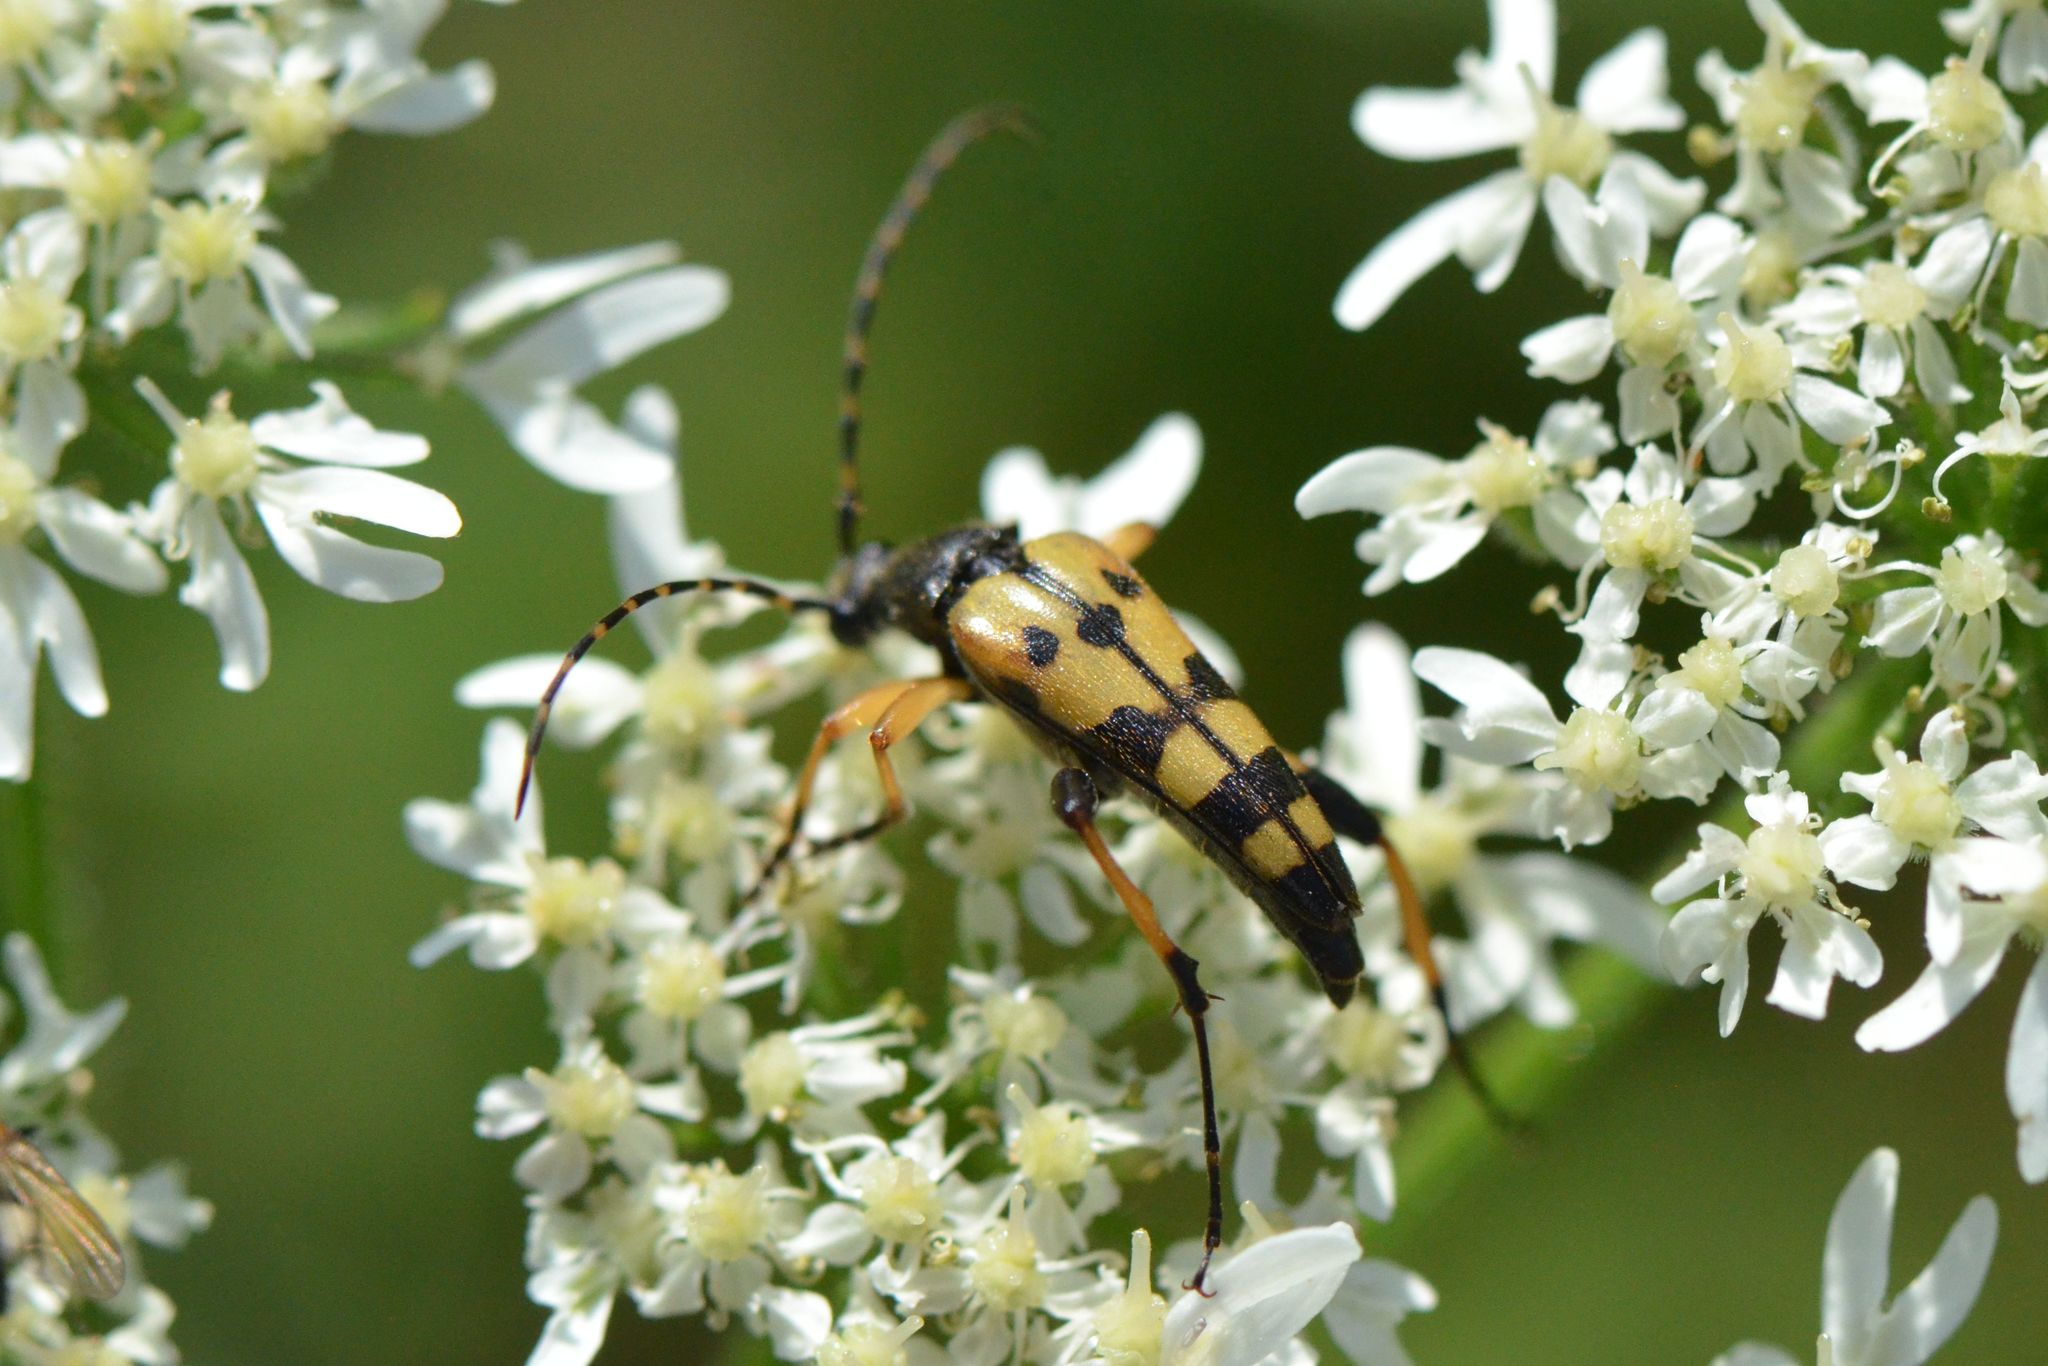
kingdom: Animalia
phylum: Arthropoda
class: Insecta
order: Coleoptera
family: Cerambycidae
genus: Rutpela
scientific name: Rutpela maculata
